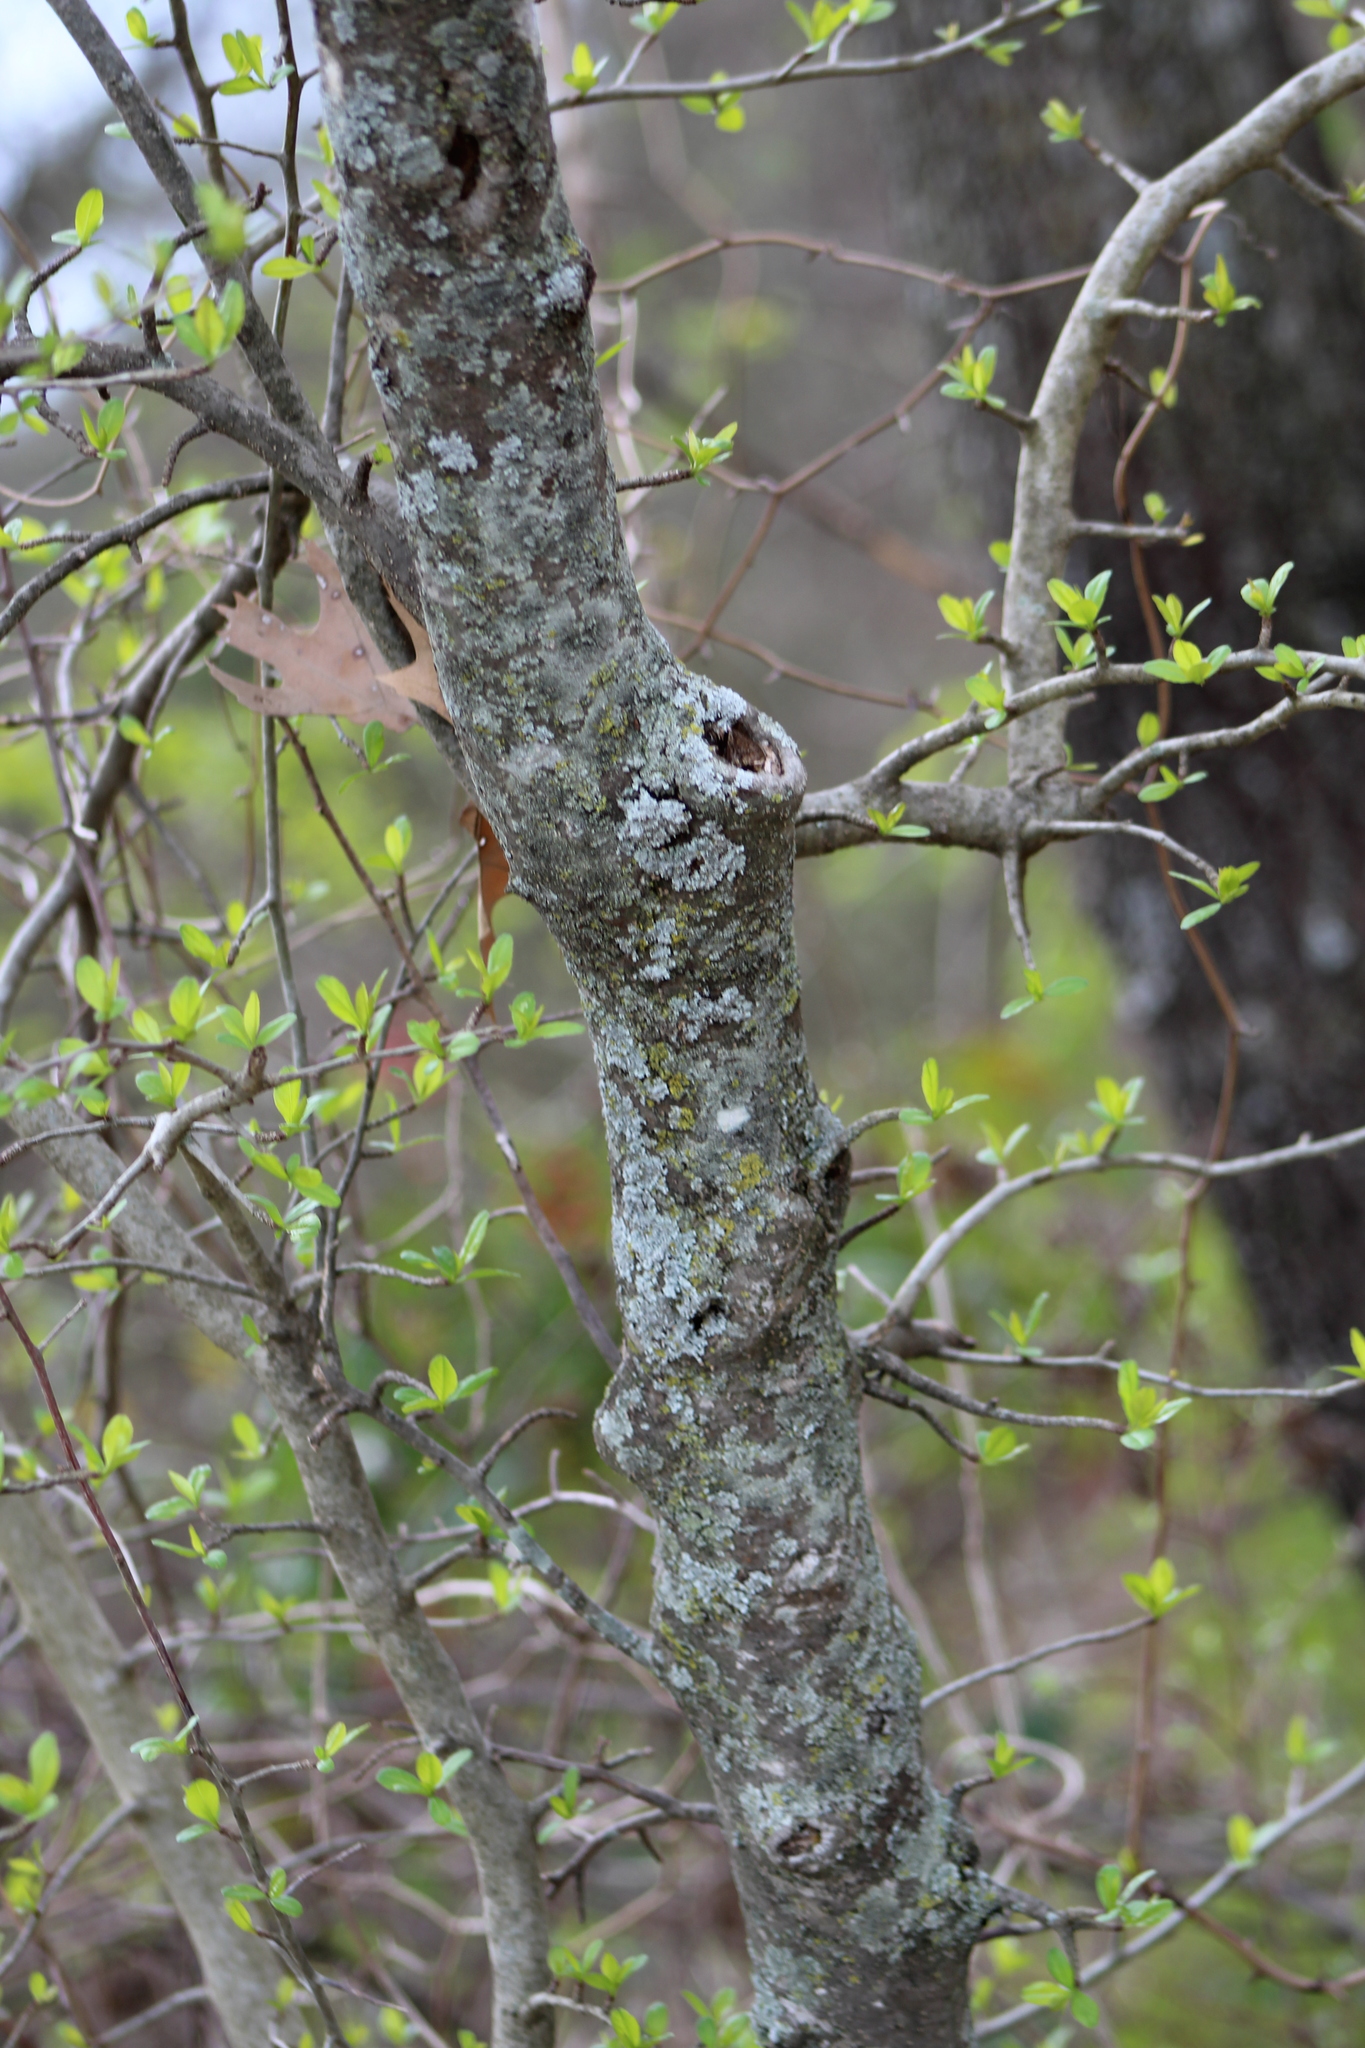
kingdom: Plantae
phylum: Tracheophyta
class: Magnoliopsida
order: Aquifoliales
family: Aquifoliaceae
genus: Ilex
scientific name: Ilex decidua
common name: Possum-haw
